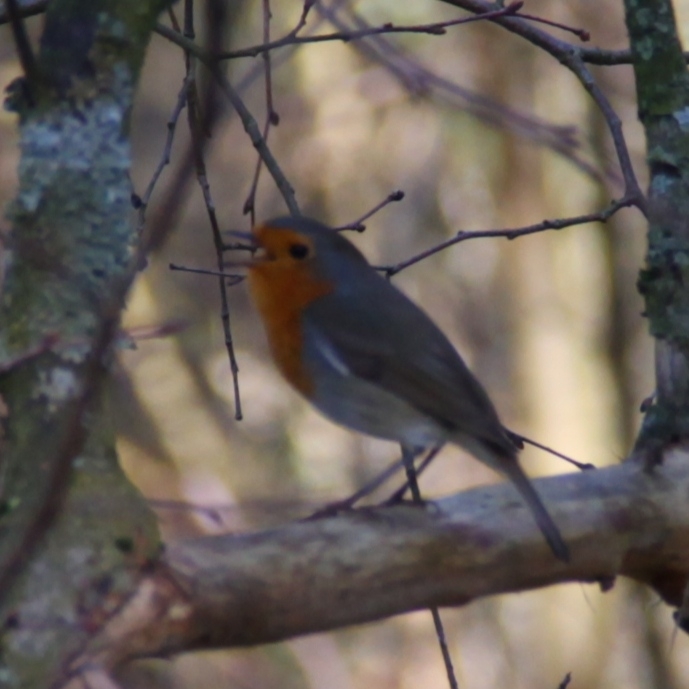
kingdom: Animalia
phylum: Chordata
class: Aves
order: Passeriformes
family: Muscicapidae
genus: Erithacus
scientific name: Erithacus rubecula
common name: European robin
